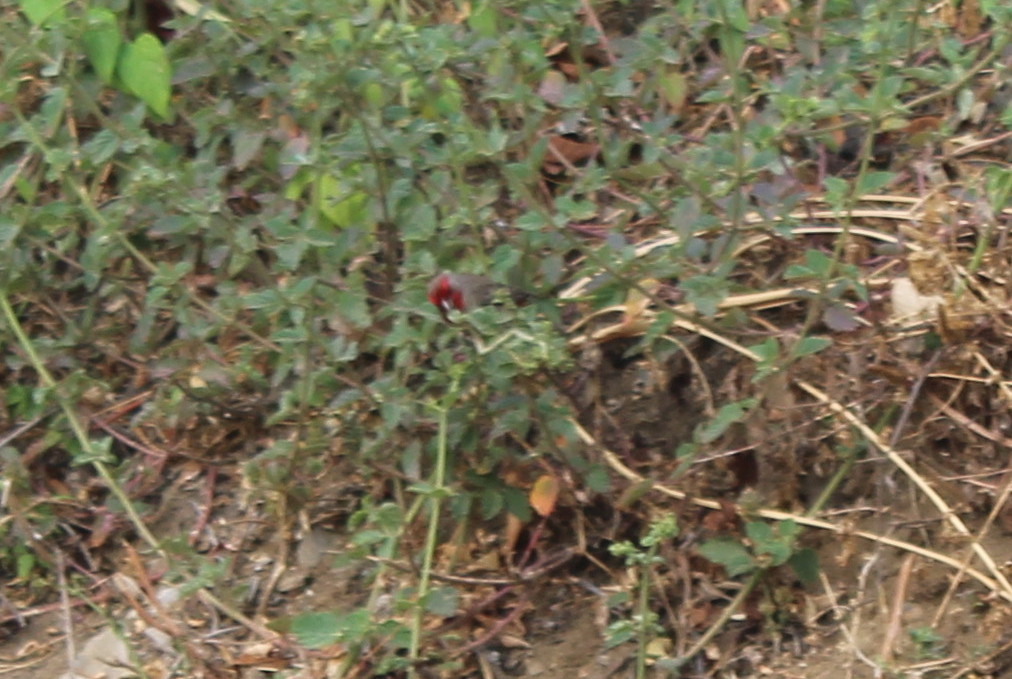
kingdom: Animalia
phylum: Chordata
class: Aves
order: Passeriformes
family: Fringillidae
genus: Haemorhous
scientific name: Haemorhous mexicanus
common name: House finch
